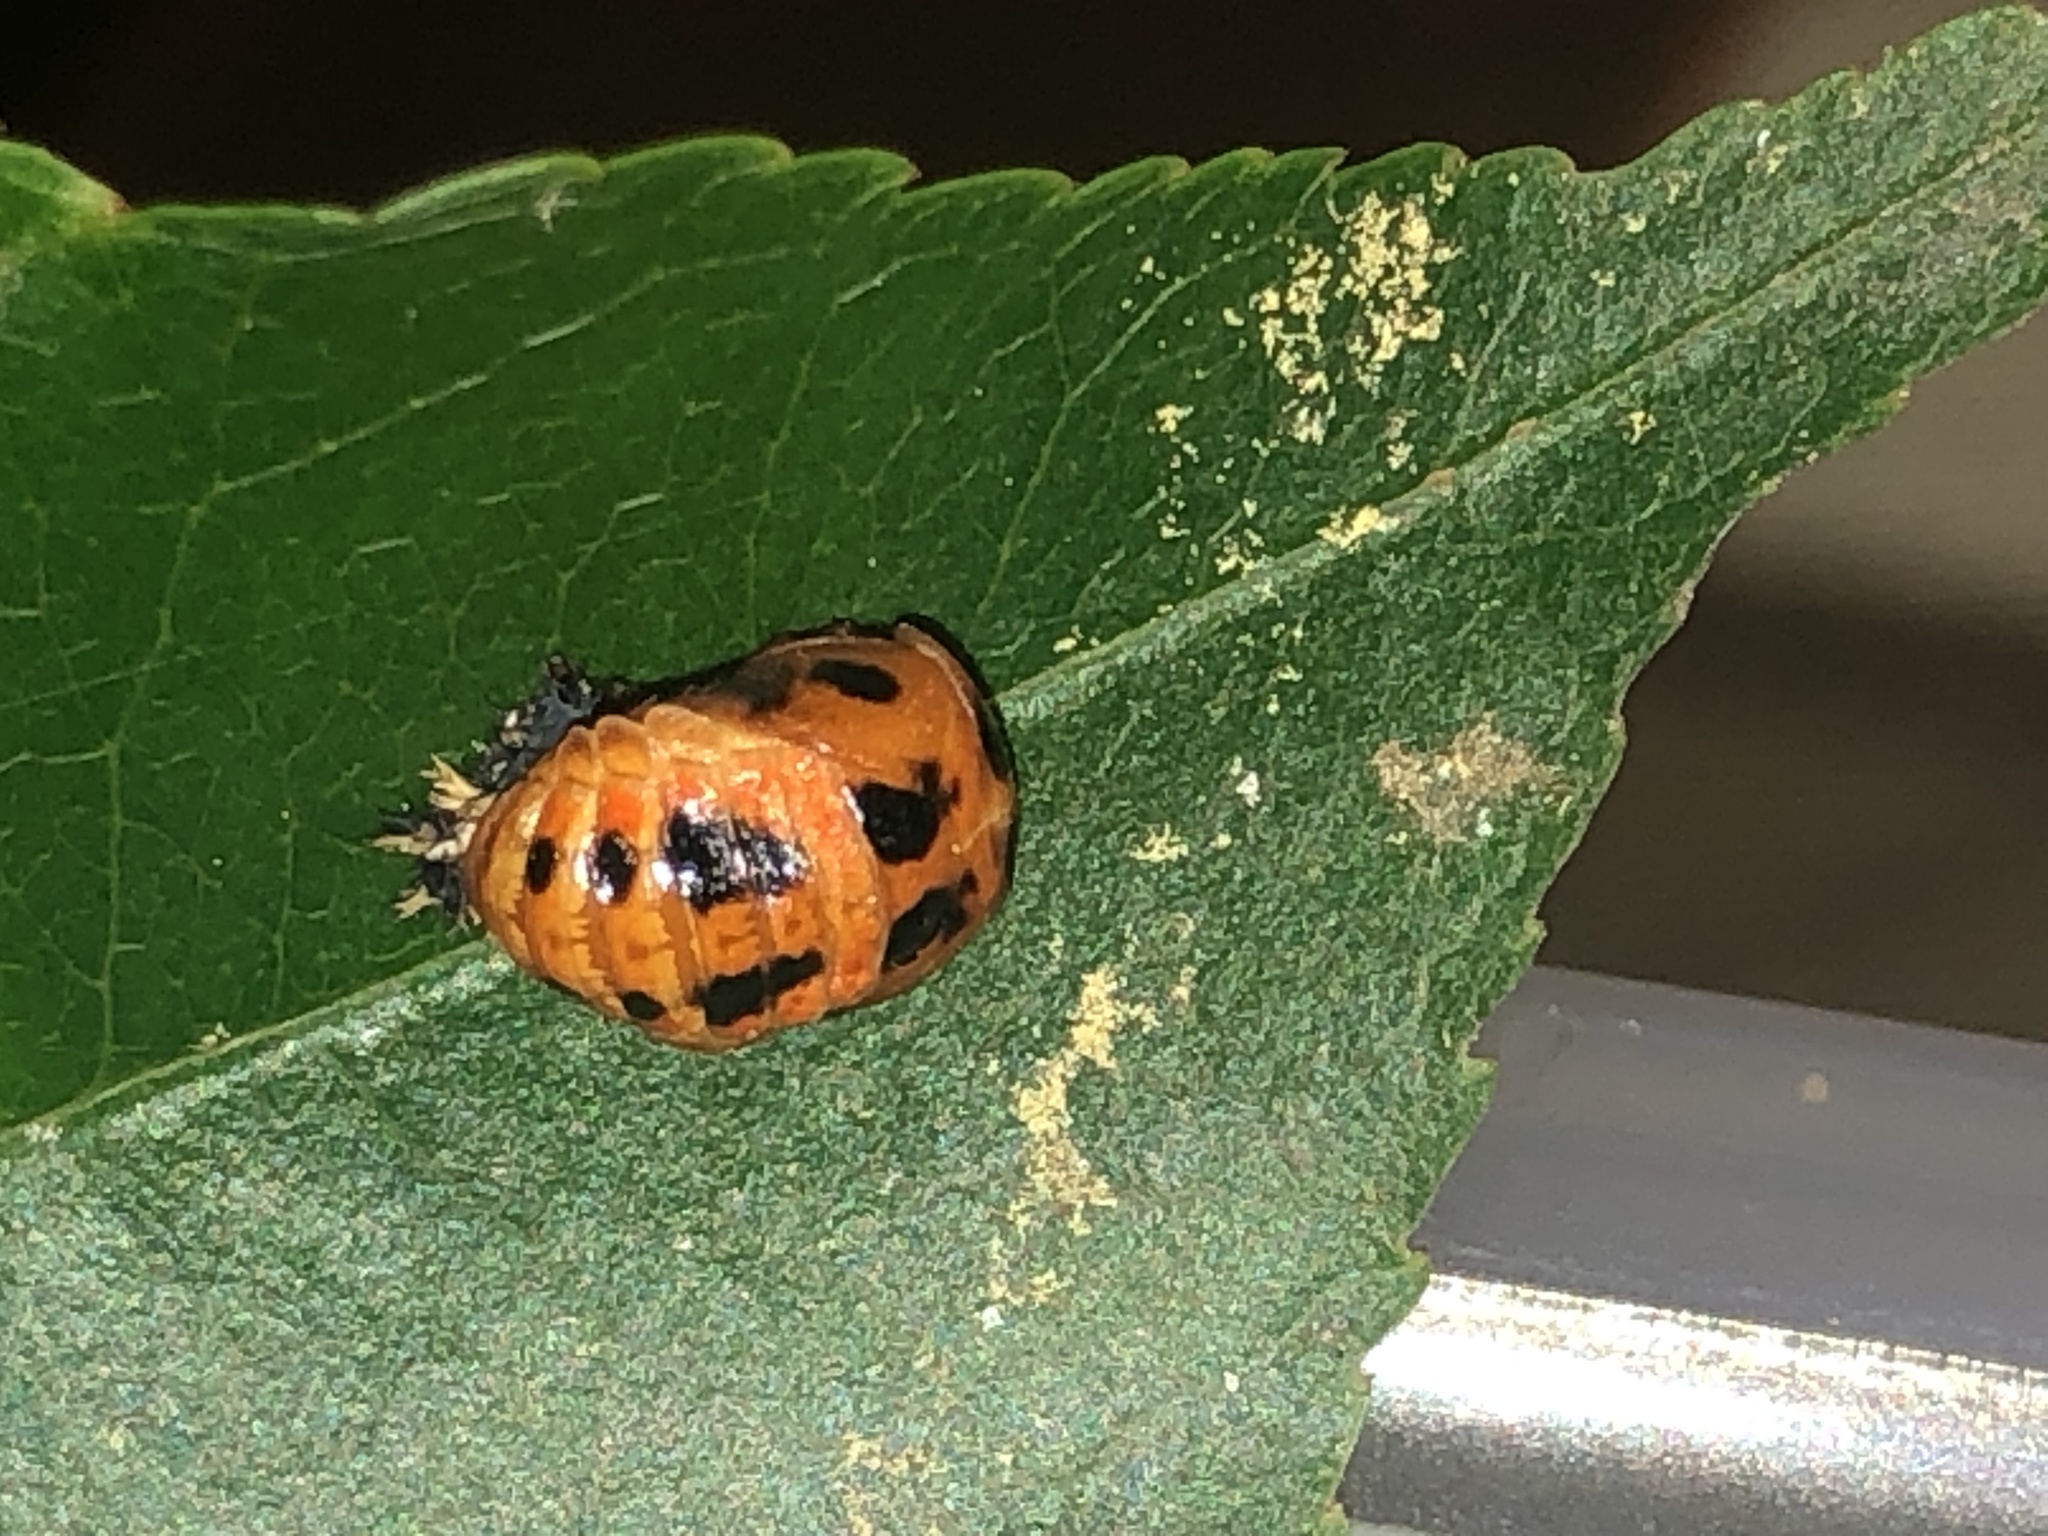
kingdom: Animalia
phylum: Arthropoda
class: Insecta
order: Coleoptera
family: Coccinellidae
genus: Harmonia
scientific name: Harmonia axyridis
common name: Harlequin ladybird
